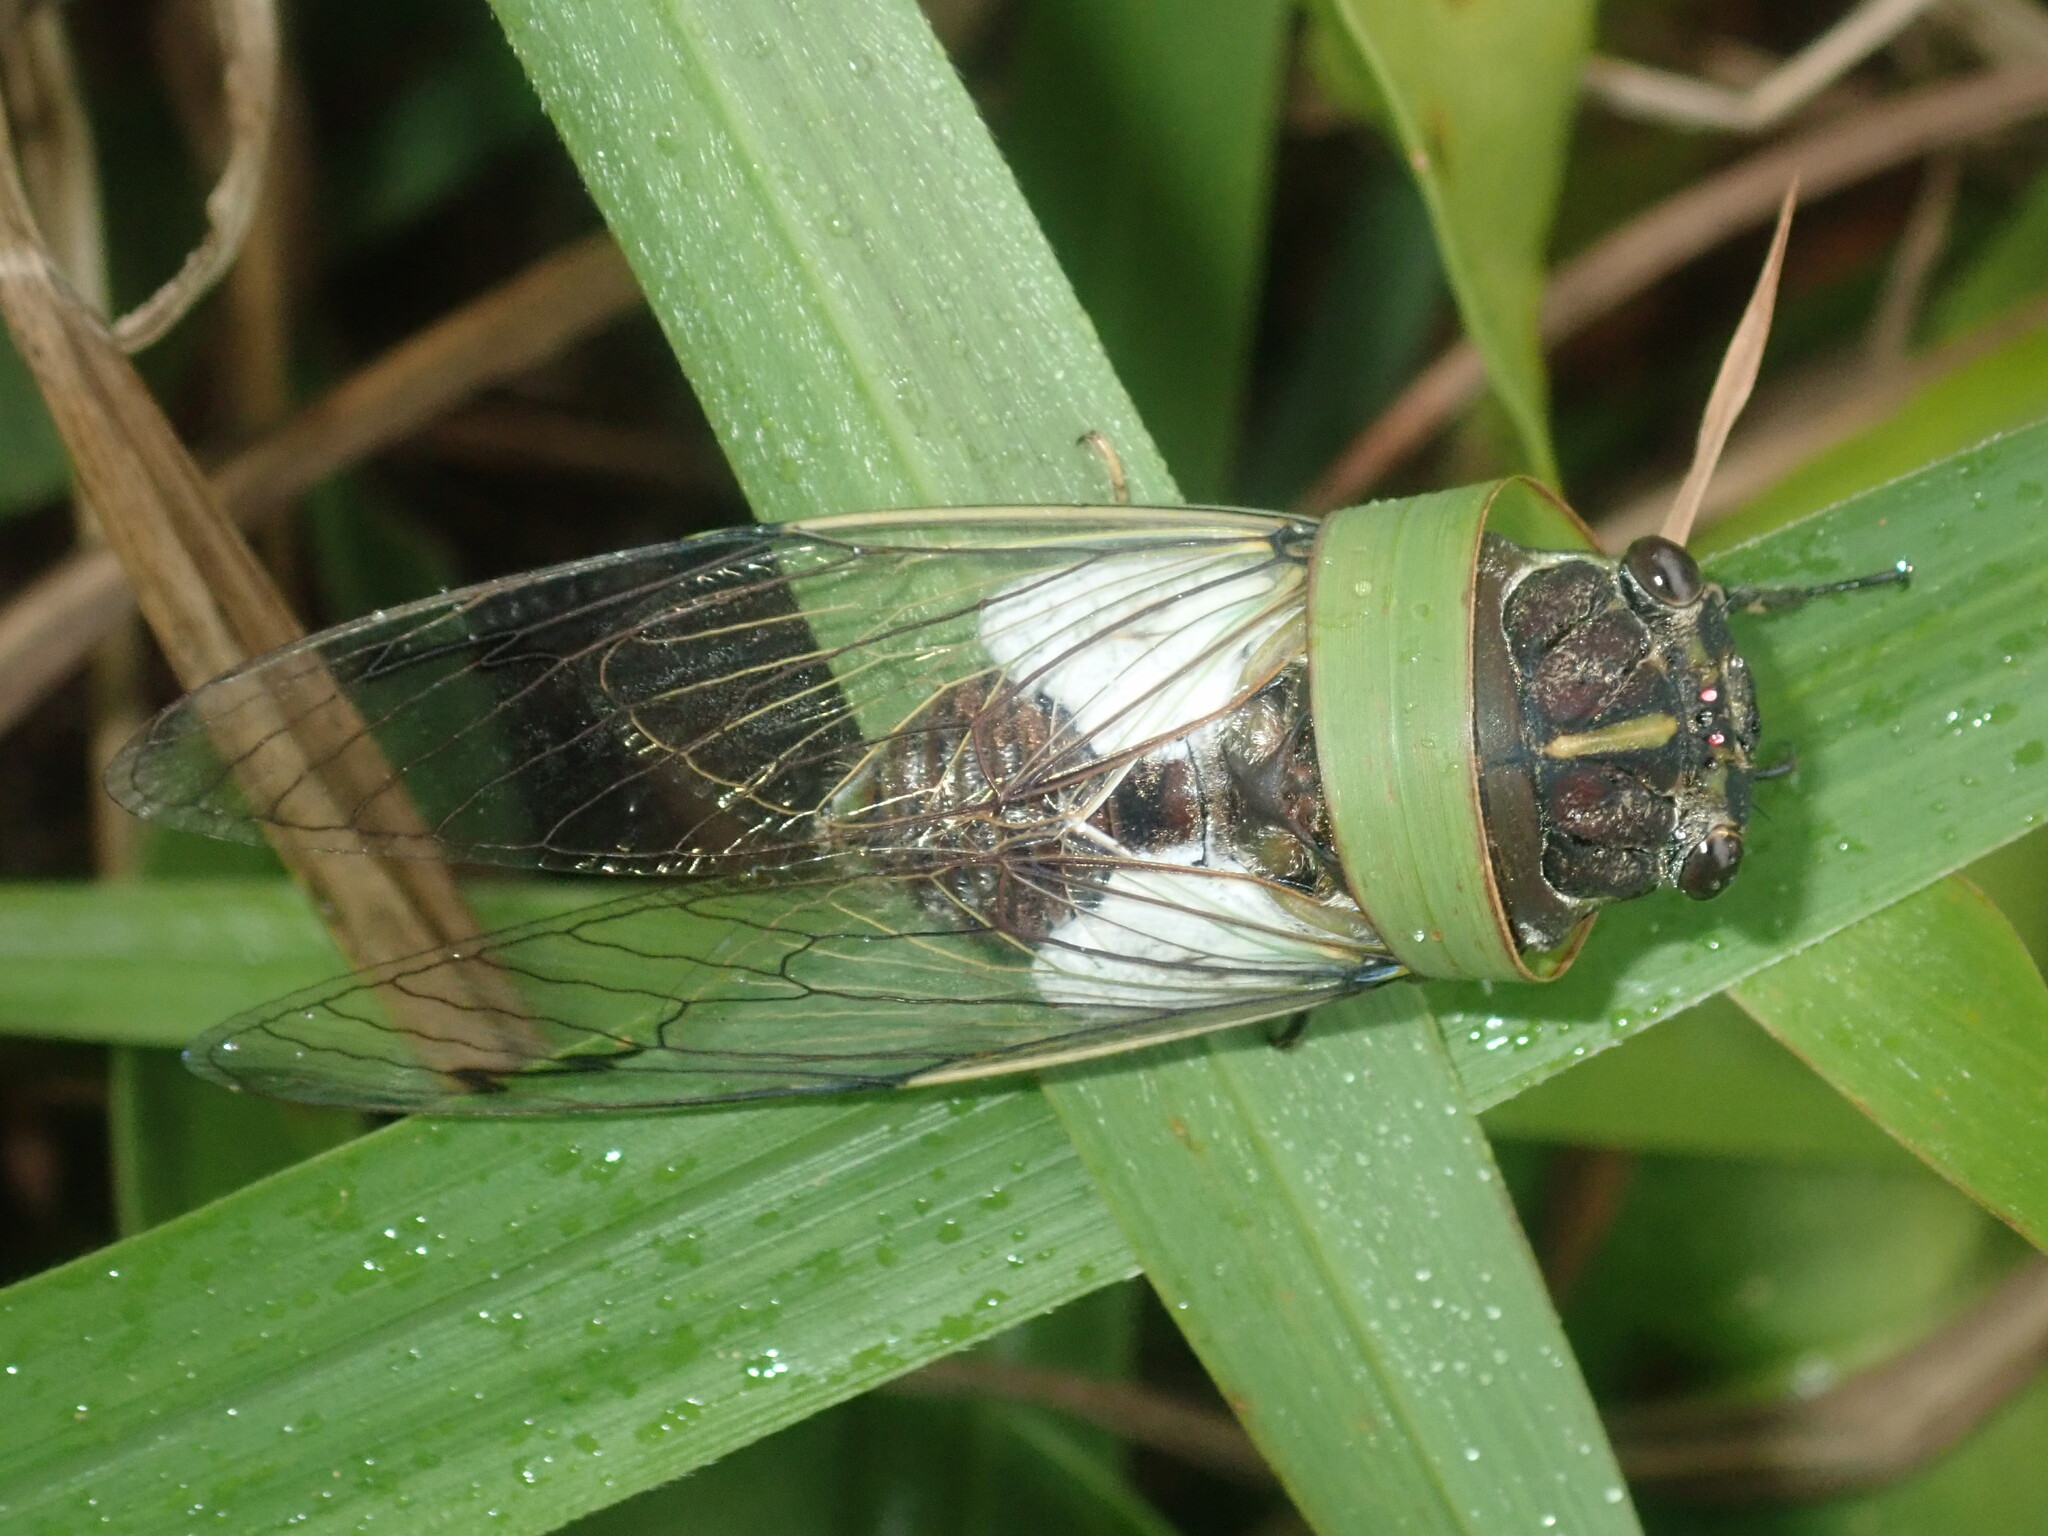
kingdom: Animalia
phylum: Arthropoda
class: Insecta
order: Hemiptera
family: Cicadidae
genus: Arunta
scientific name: Arunta perulata
